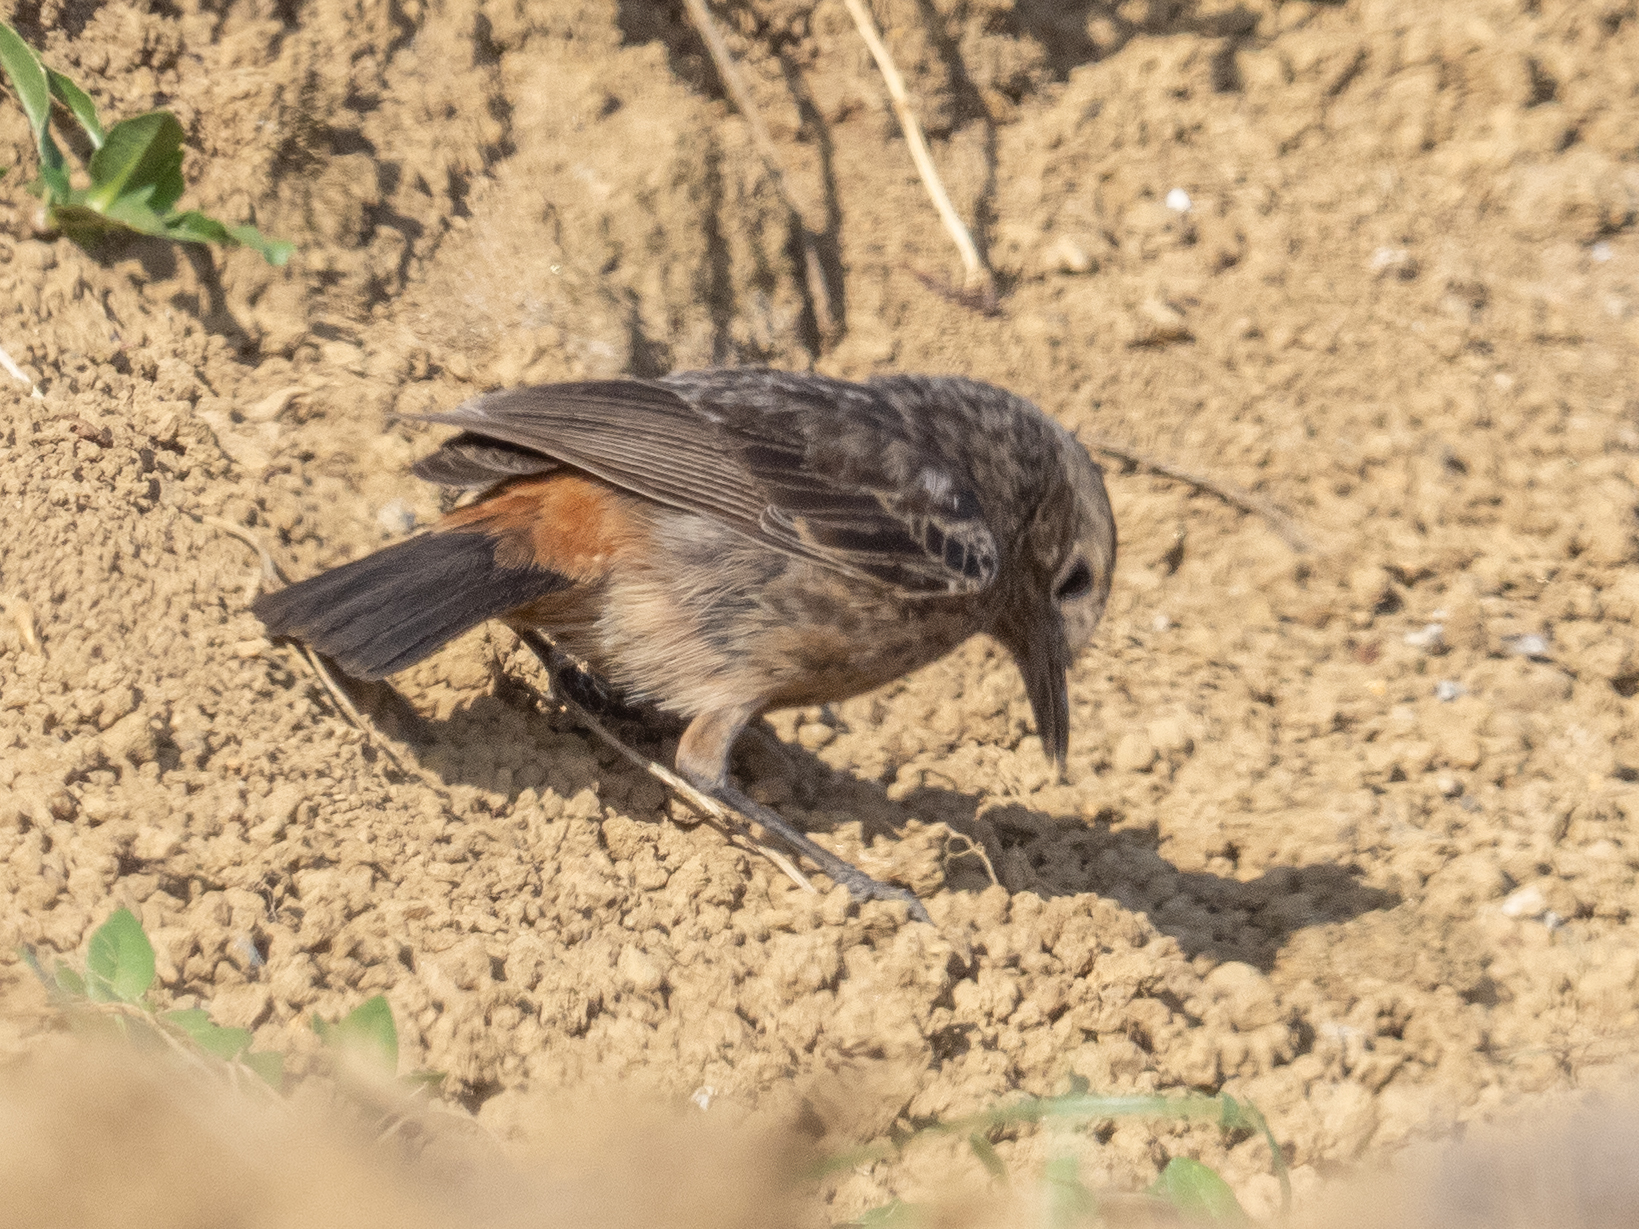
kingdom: Animalia
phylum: Chordata
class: Aves
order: Passeriformes
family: Muscicapidae
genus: Saxicola
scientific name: Saxicola caprata
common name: Pied bush chat
